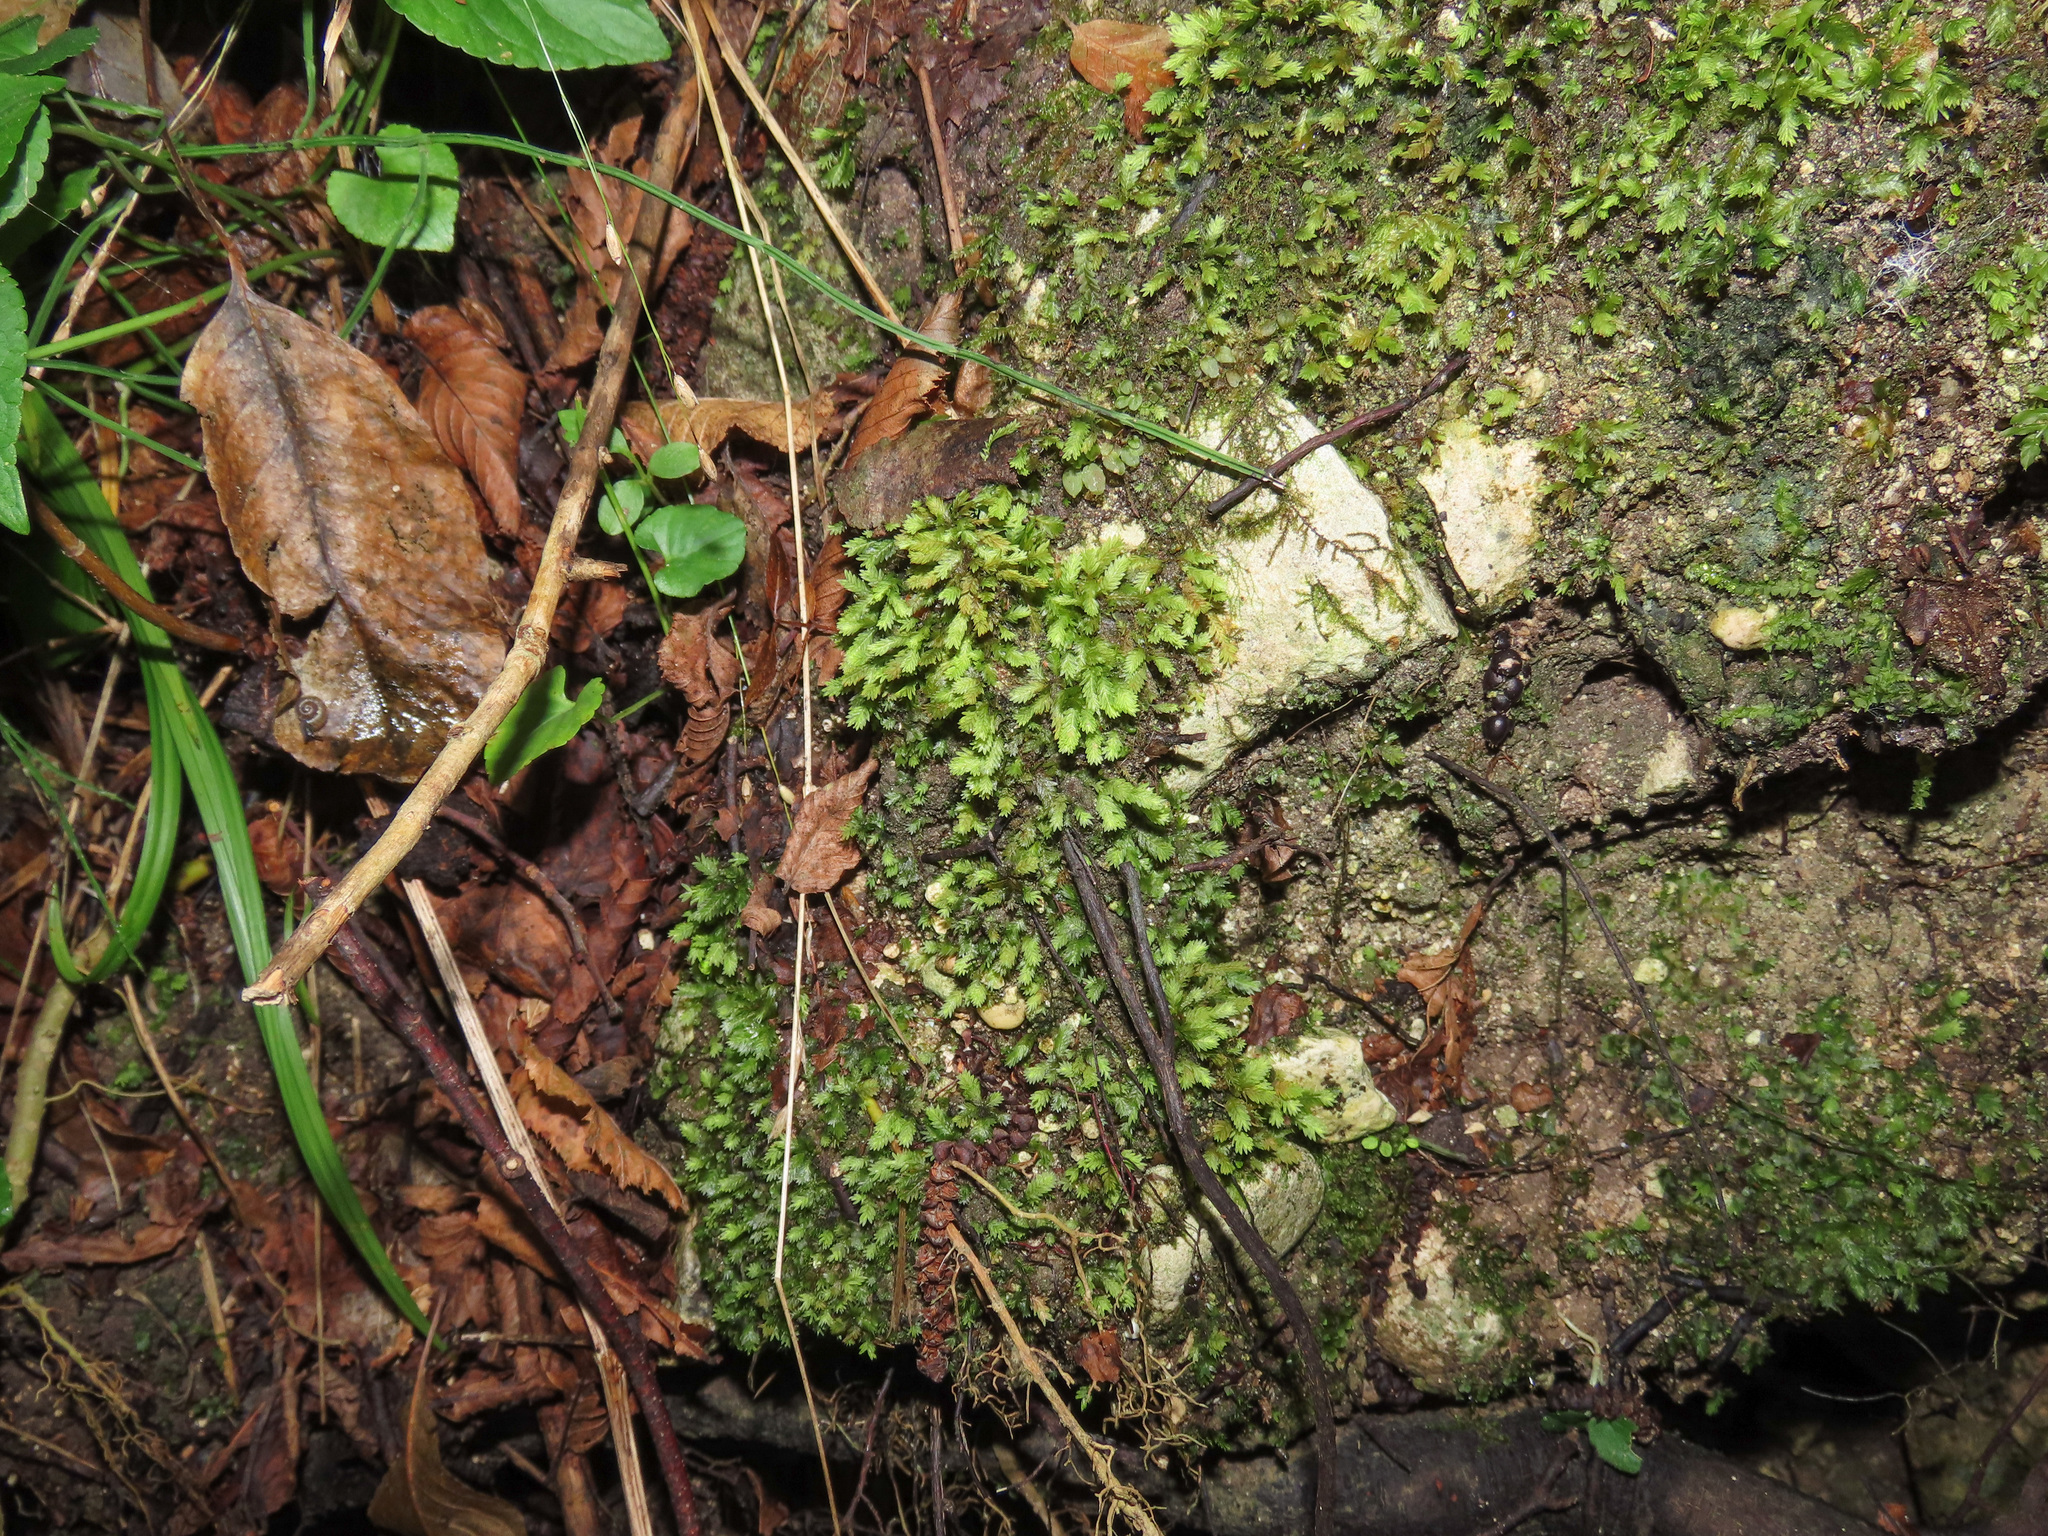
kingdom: Plantae
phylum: Bryophyta
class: Bryopsida
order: Dicranales
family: Fissidentaceae
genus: Fissidens
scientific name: Fissidens taxifolius
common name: Yew-leaved pocket moss
